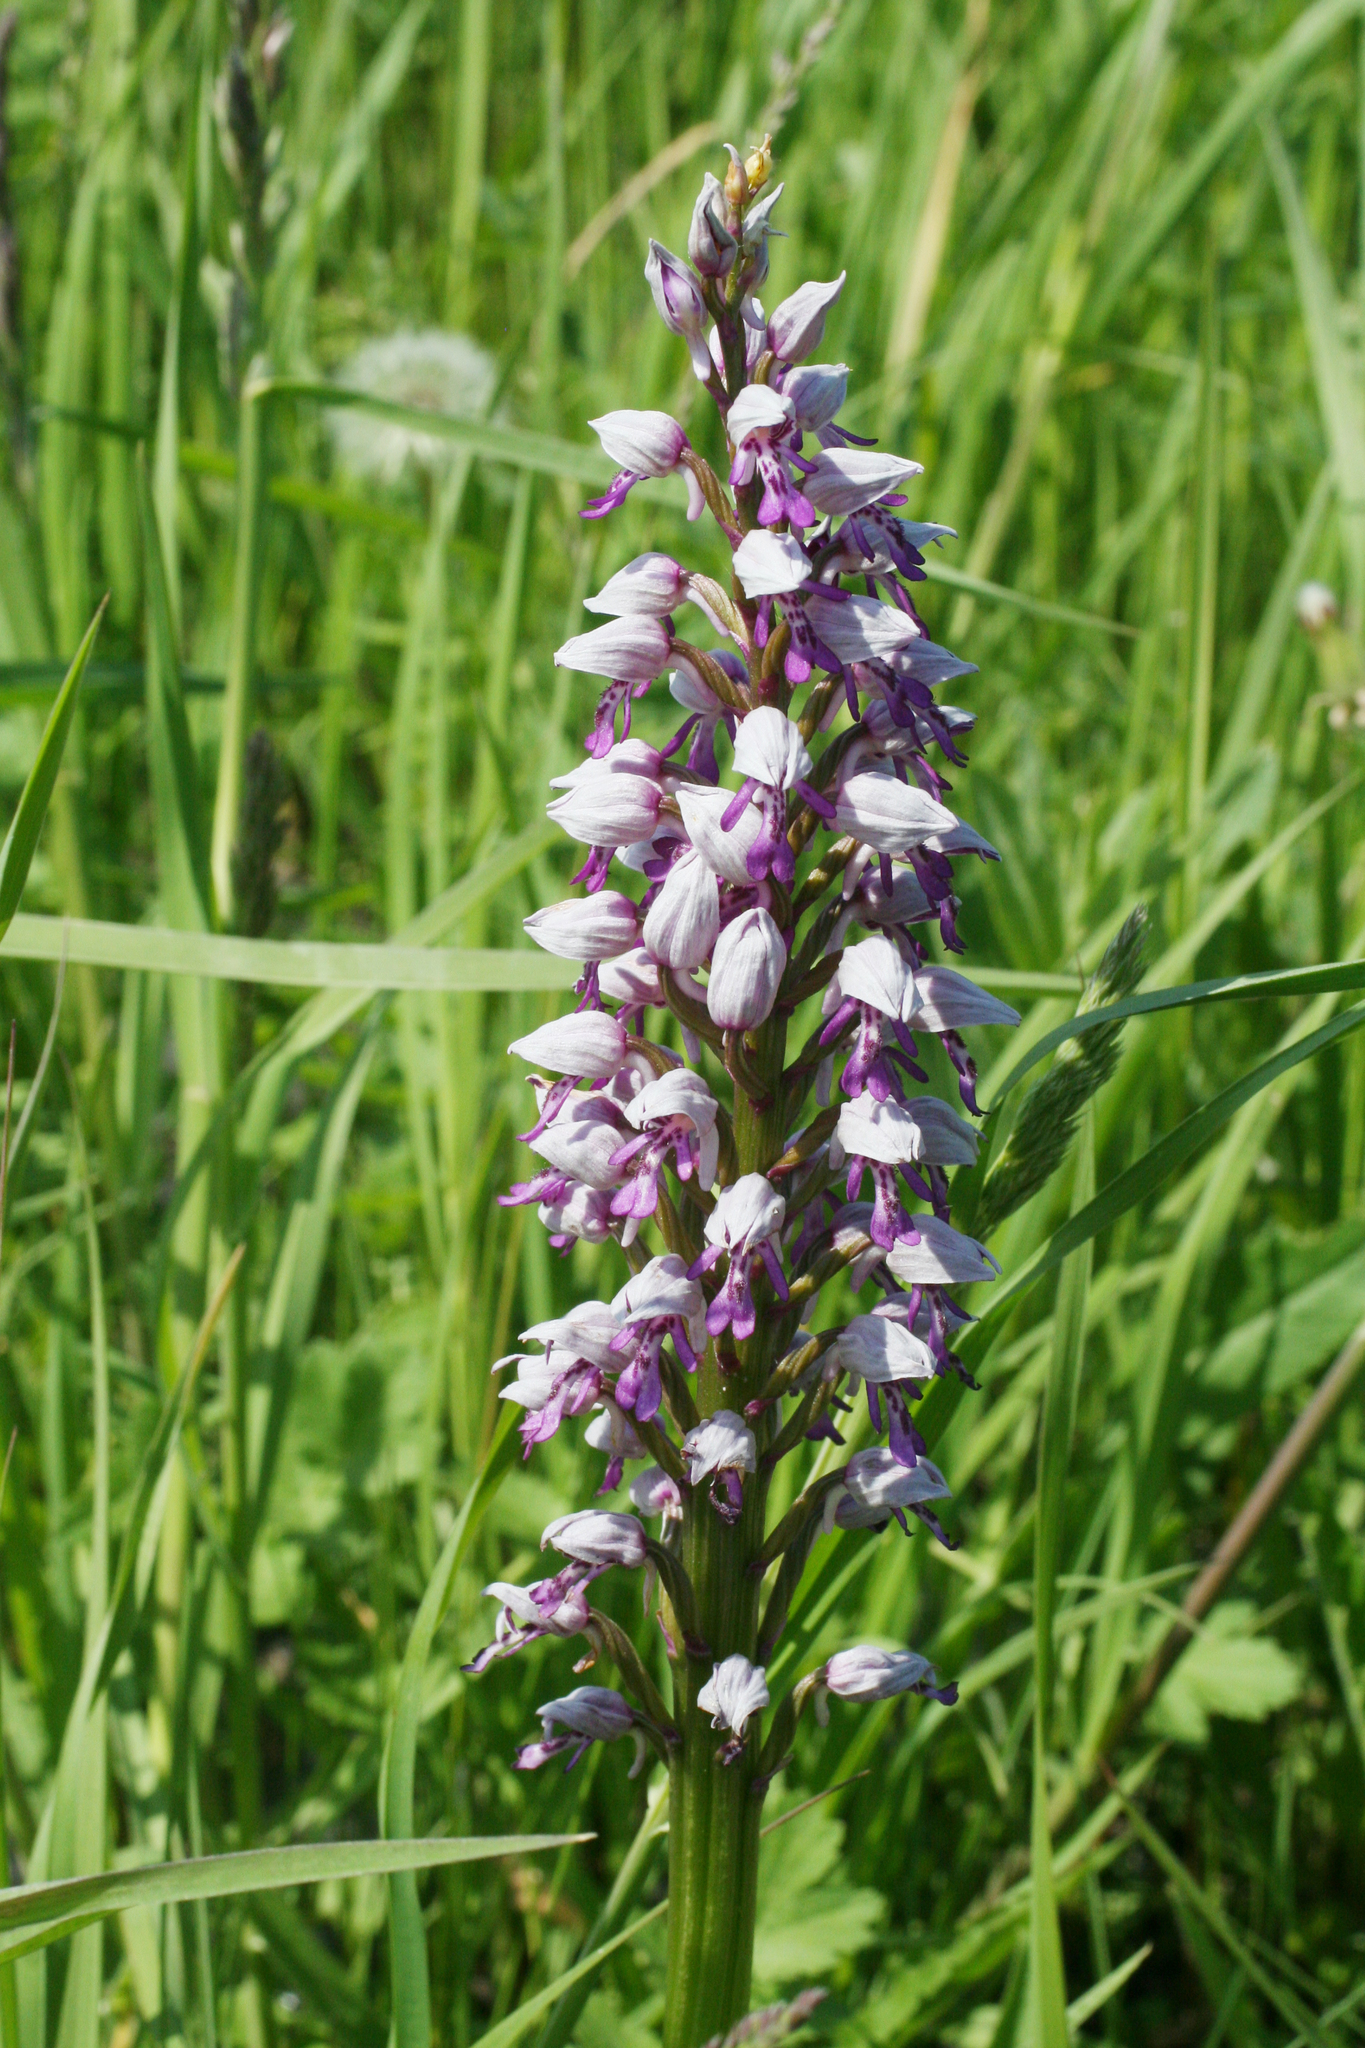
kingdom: Plantae
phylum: Tracheophyta
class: Liliopsida
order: Asparagales
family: Orchidaceae
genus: Orchis
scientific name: Orchis militaris
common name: Military orchid
